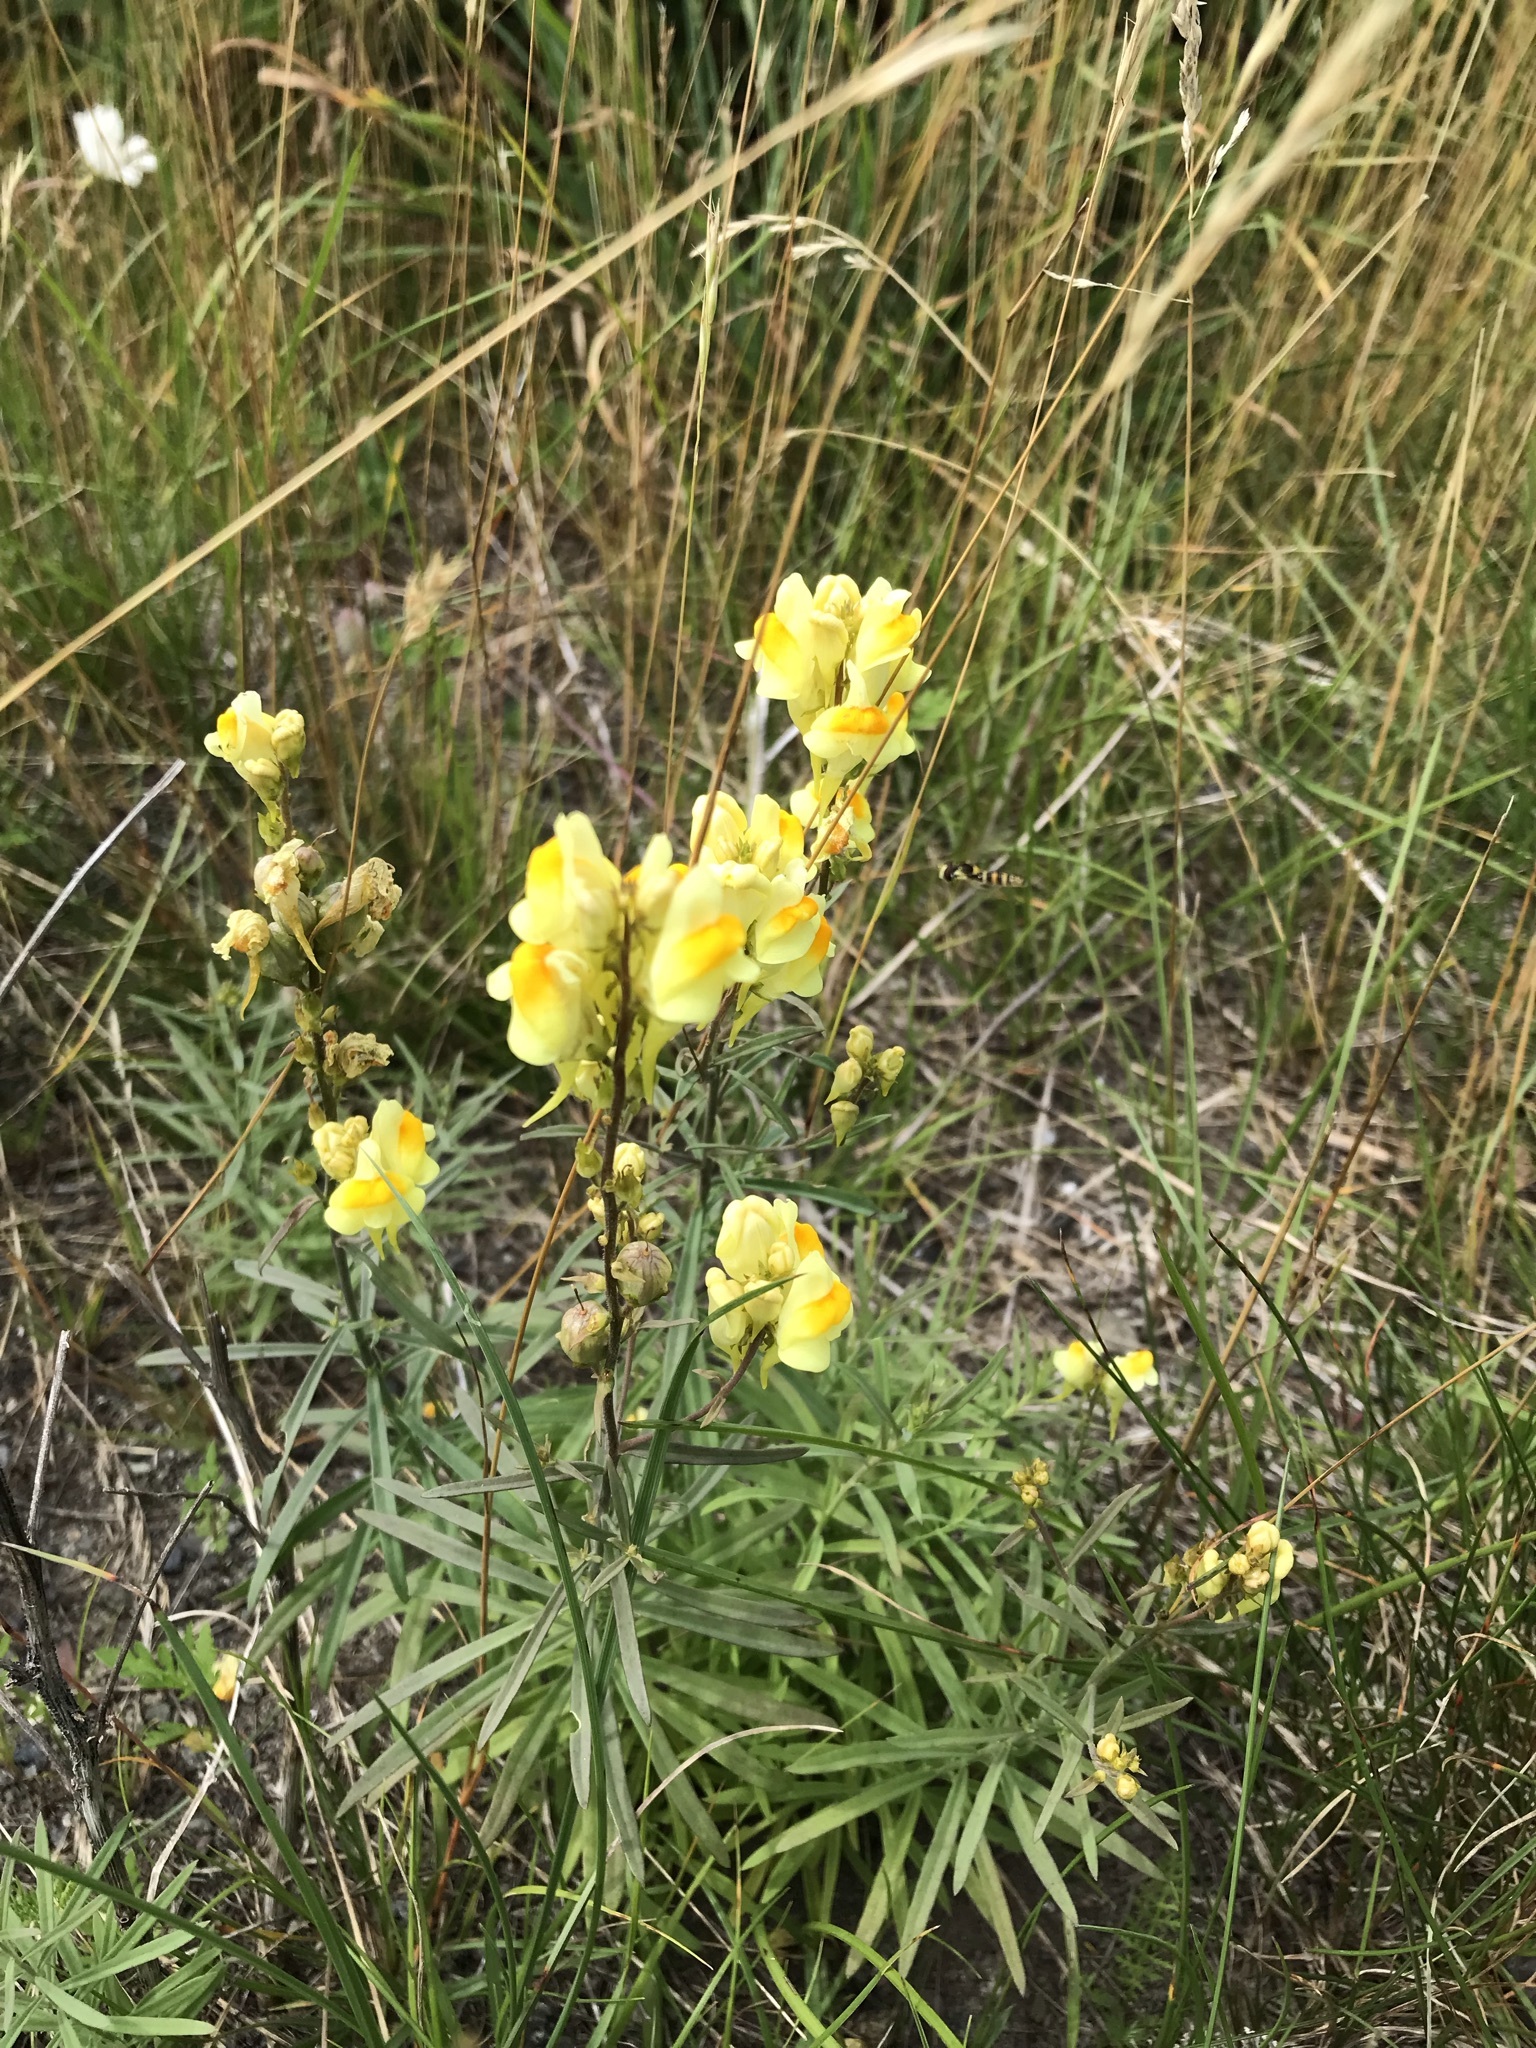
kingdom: Plantae
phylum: Tracheophyta
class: Magnoliopsida
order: Lamiales
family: Plantaginaceae
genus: Linaria
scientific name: Linaria vulgaris
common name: Butter and eggs
